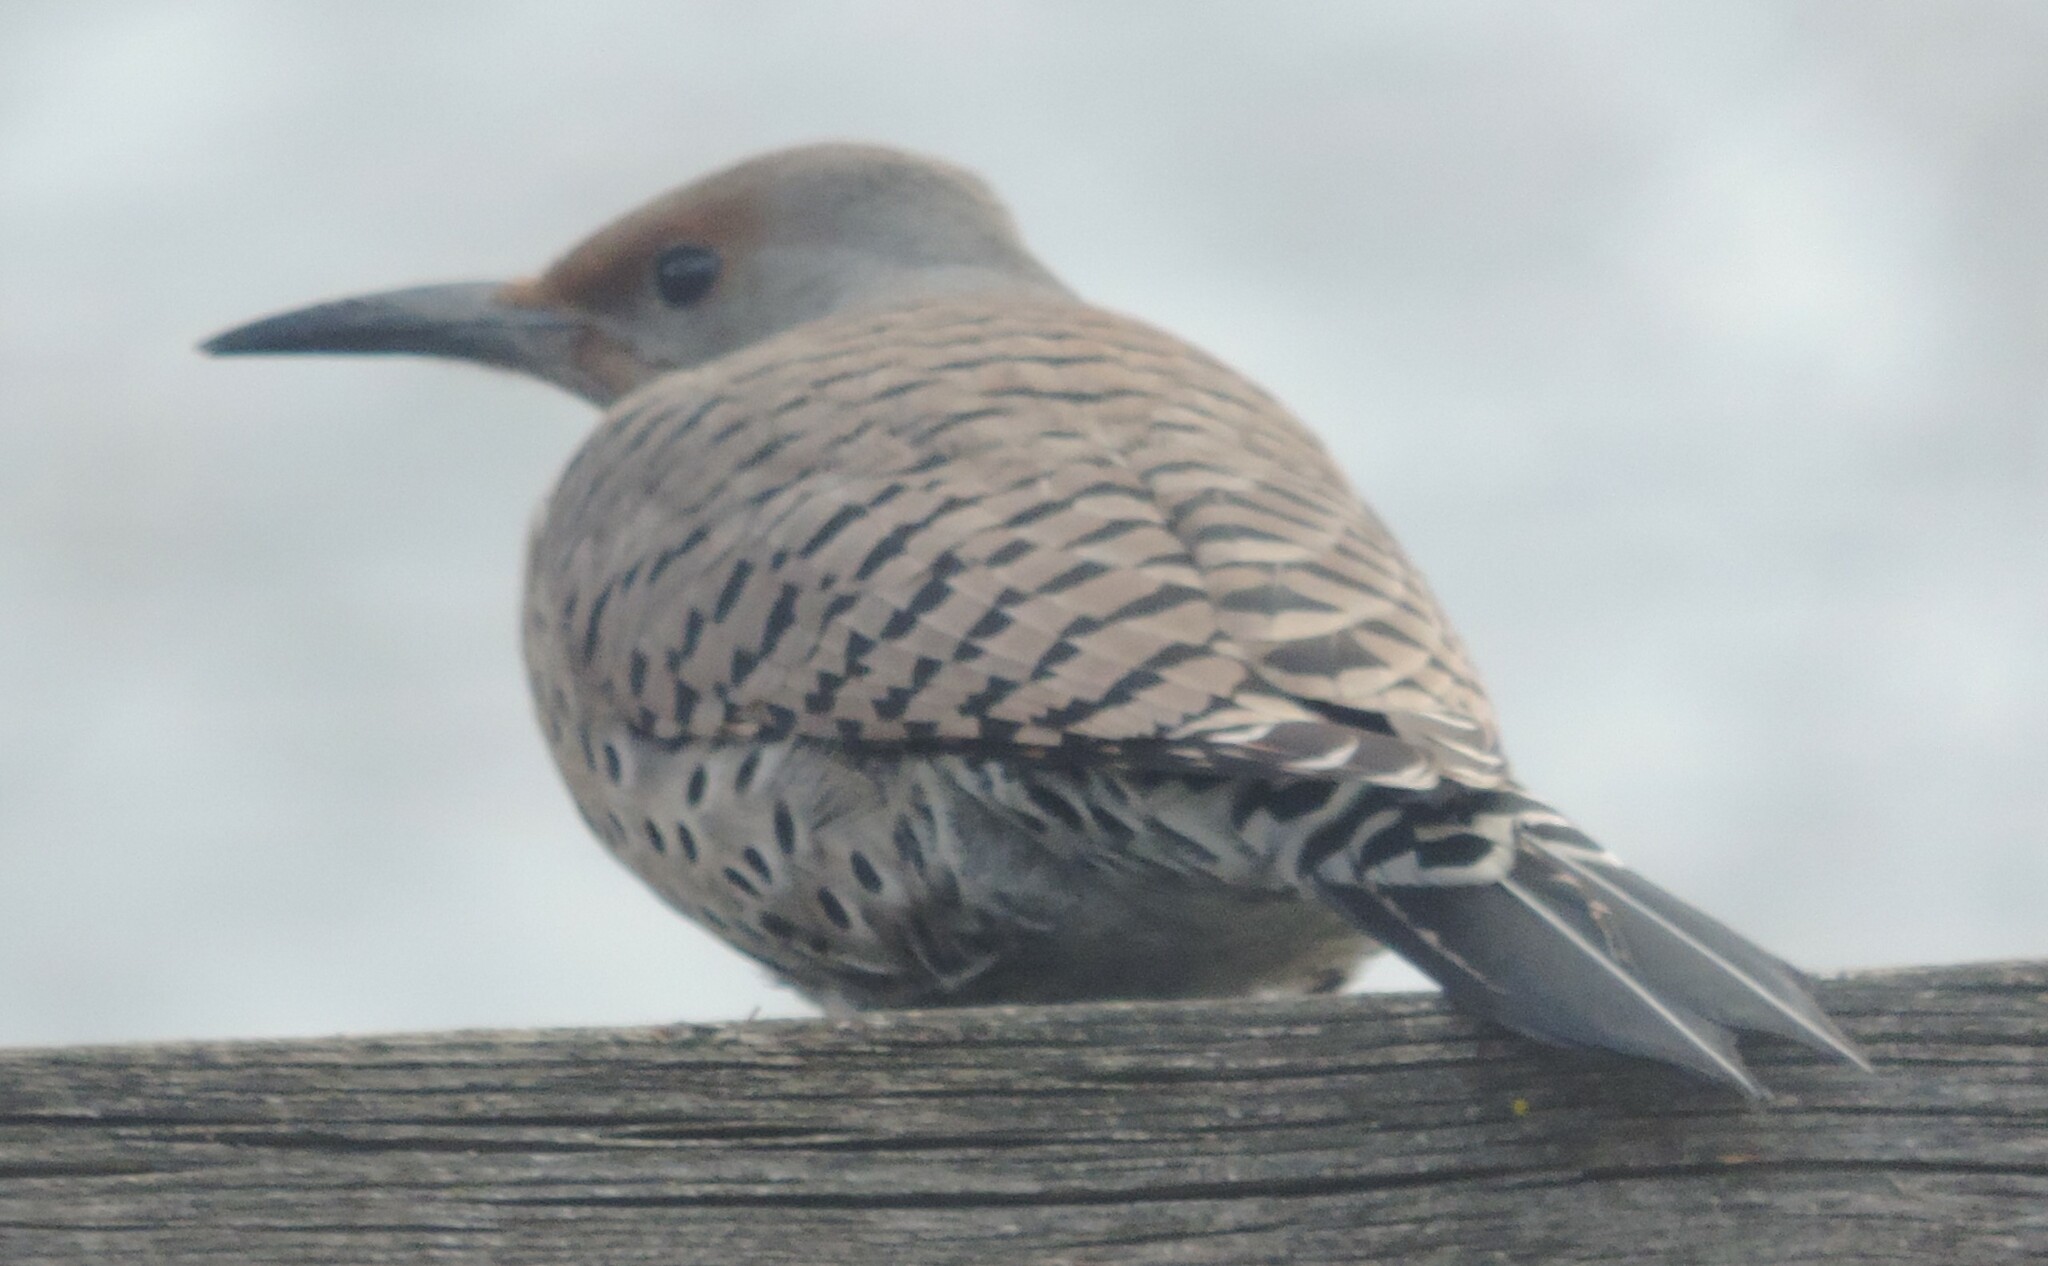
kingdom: Animalia
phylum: Chordata
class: Aves
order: Piciformes
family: Picidae
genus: Colaptes
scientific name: Colaptes auratus
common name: Northern flicker
